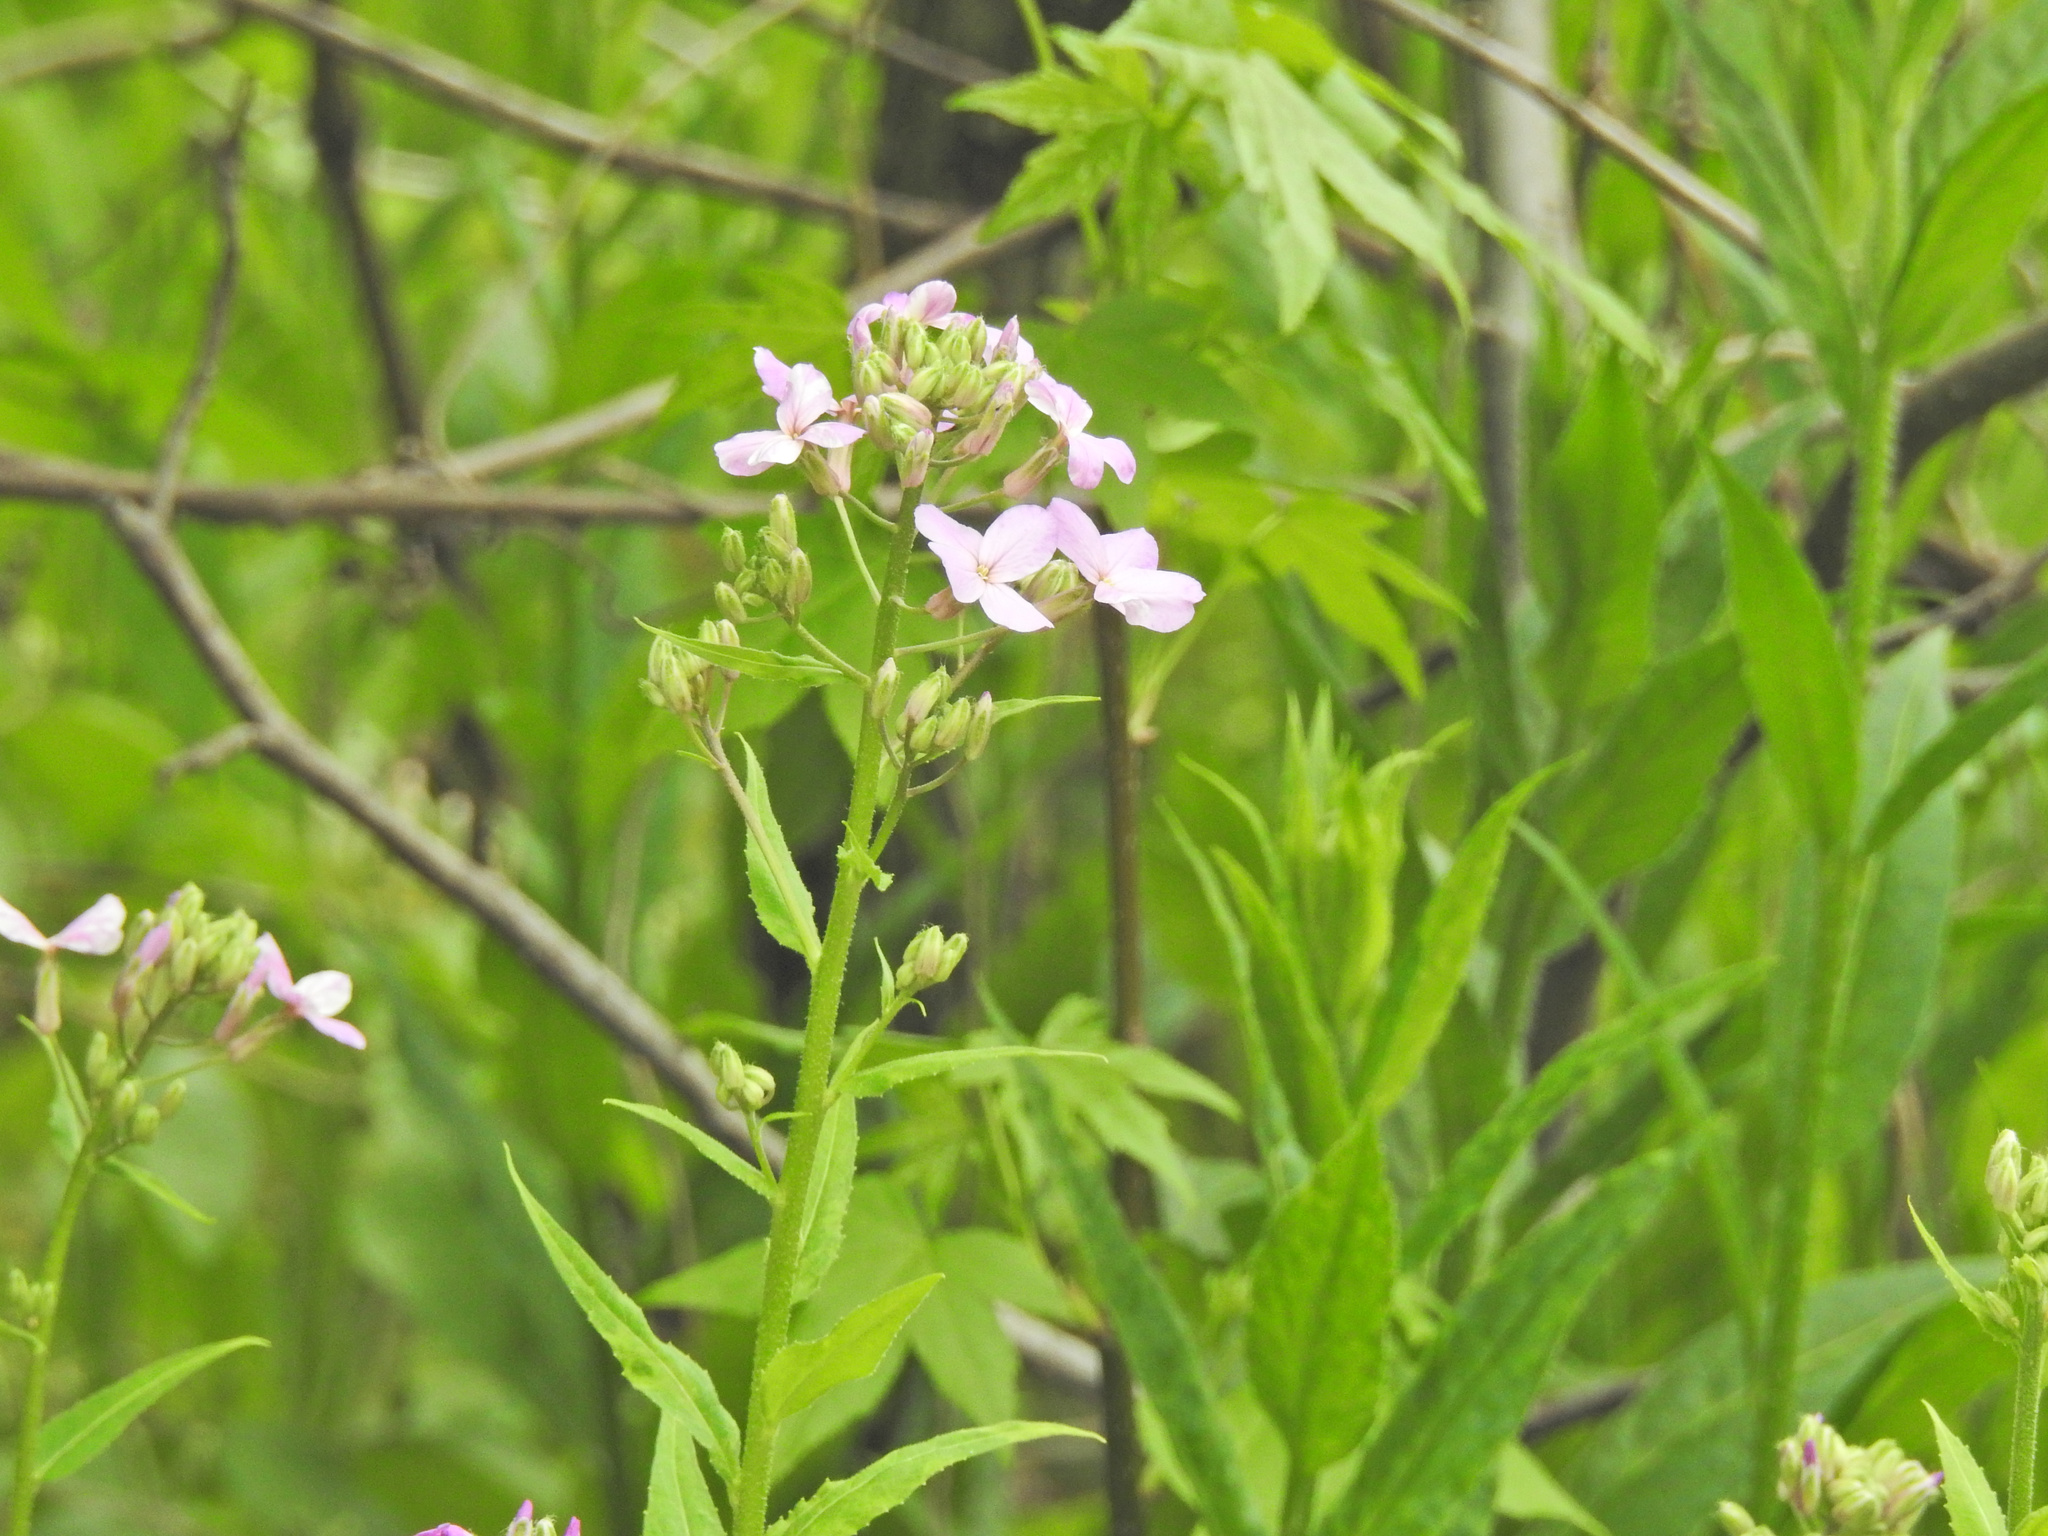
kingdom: Plantae
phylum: Tracheophyta
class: Magnoliopsida
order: Brassicales
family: Brassicaceae
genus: Hesperis
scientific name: Hesperis matronalis
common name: Dame's-violet
